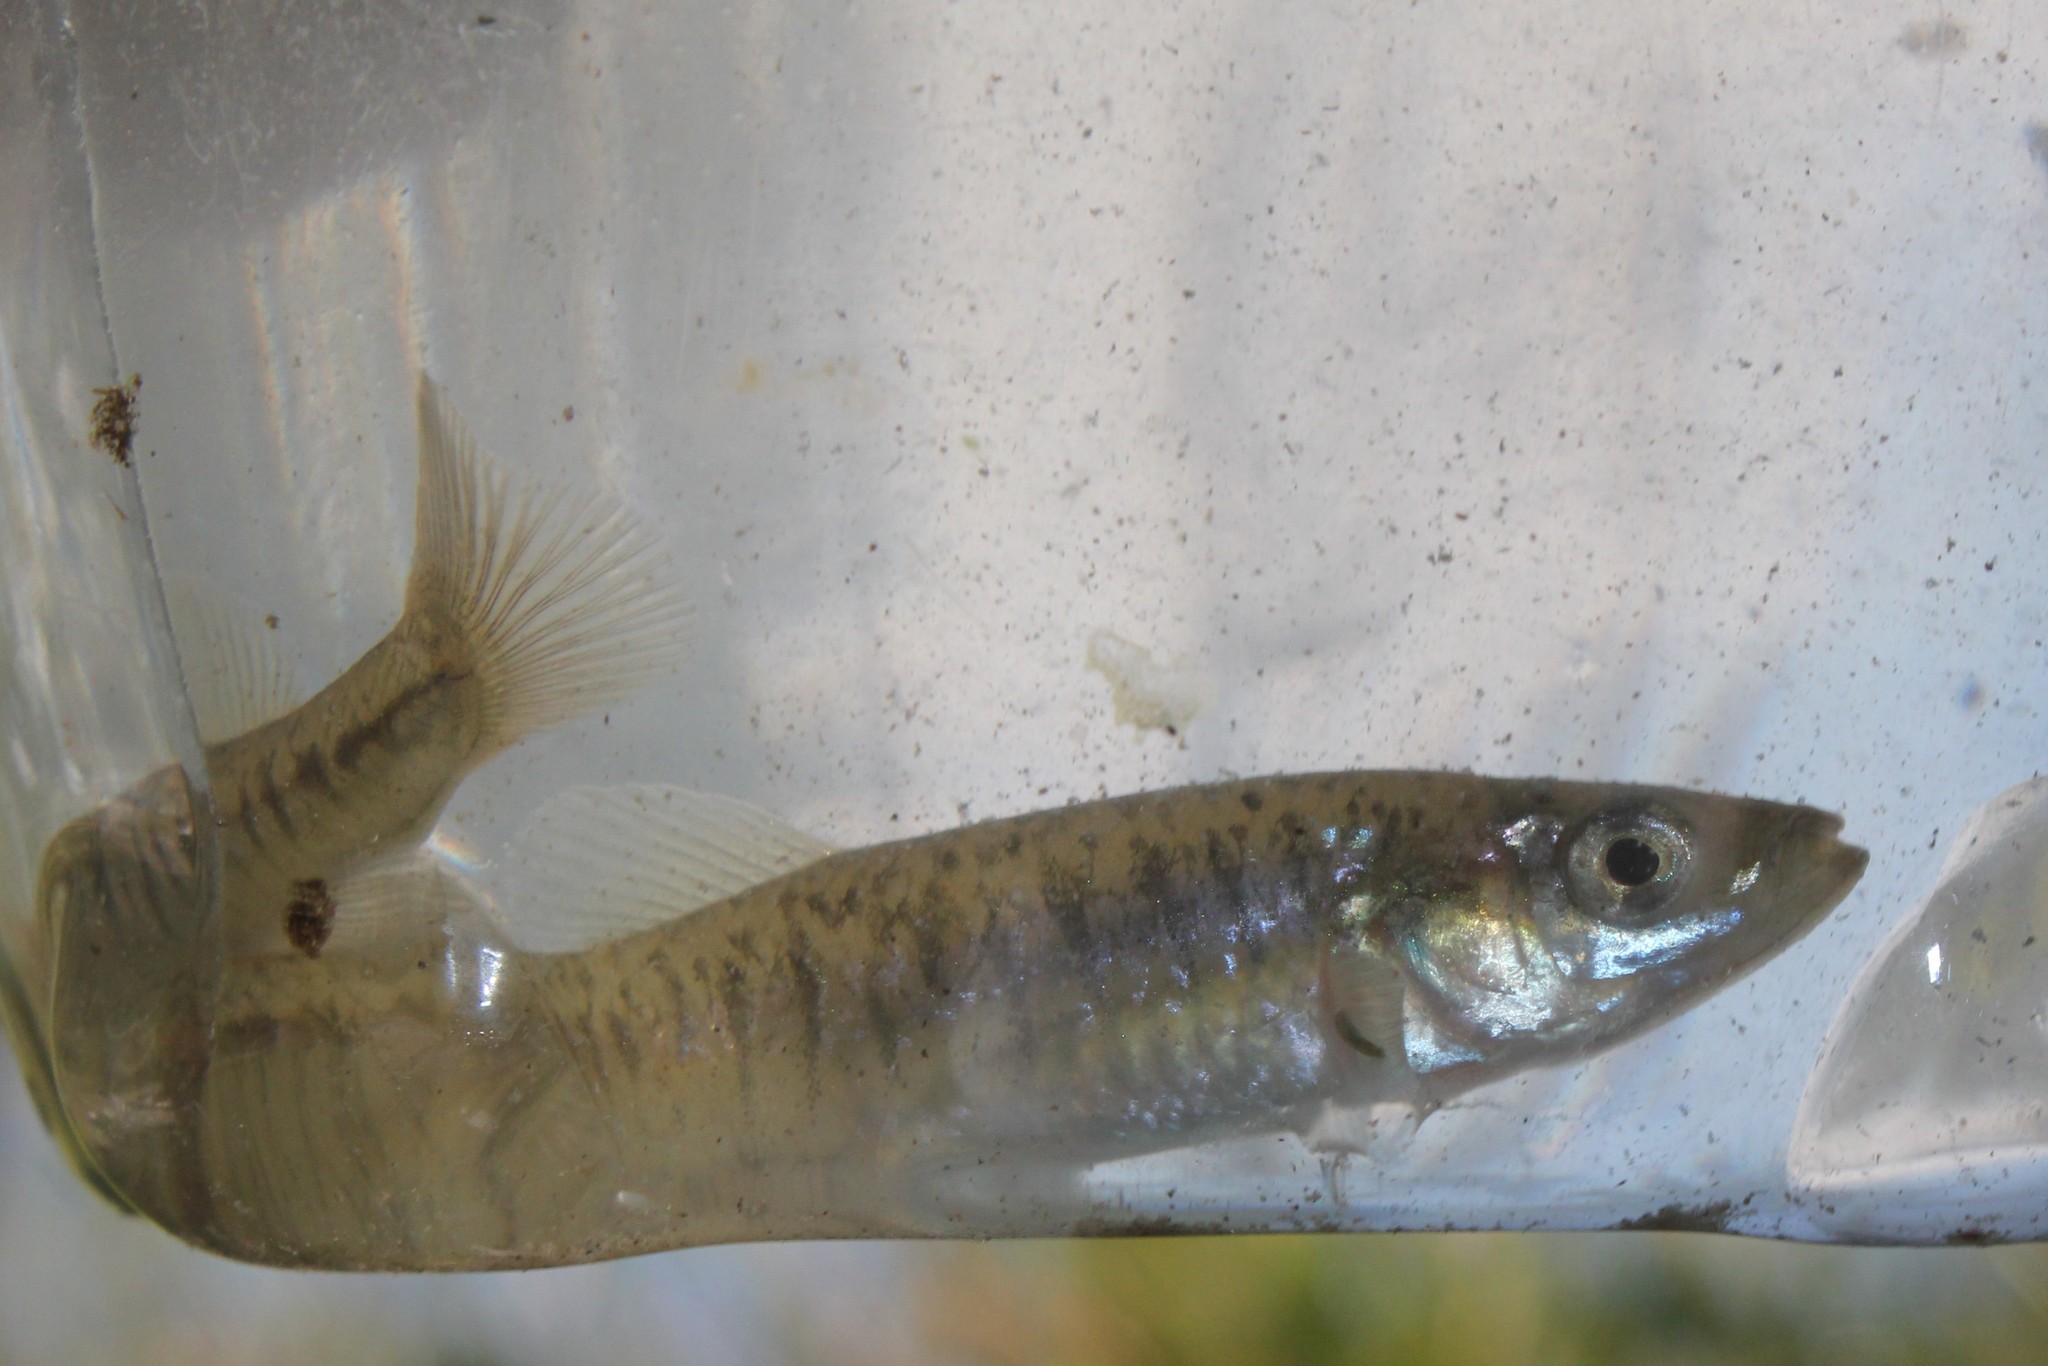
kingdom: Animalia
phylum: Chordata
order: Cyprinodontiformes
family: Fundulidae
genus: Fundulus
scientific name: Fundulus diaphanus
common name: Banded killifish
